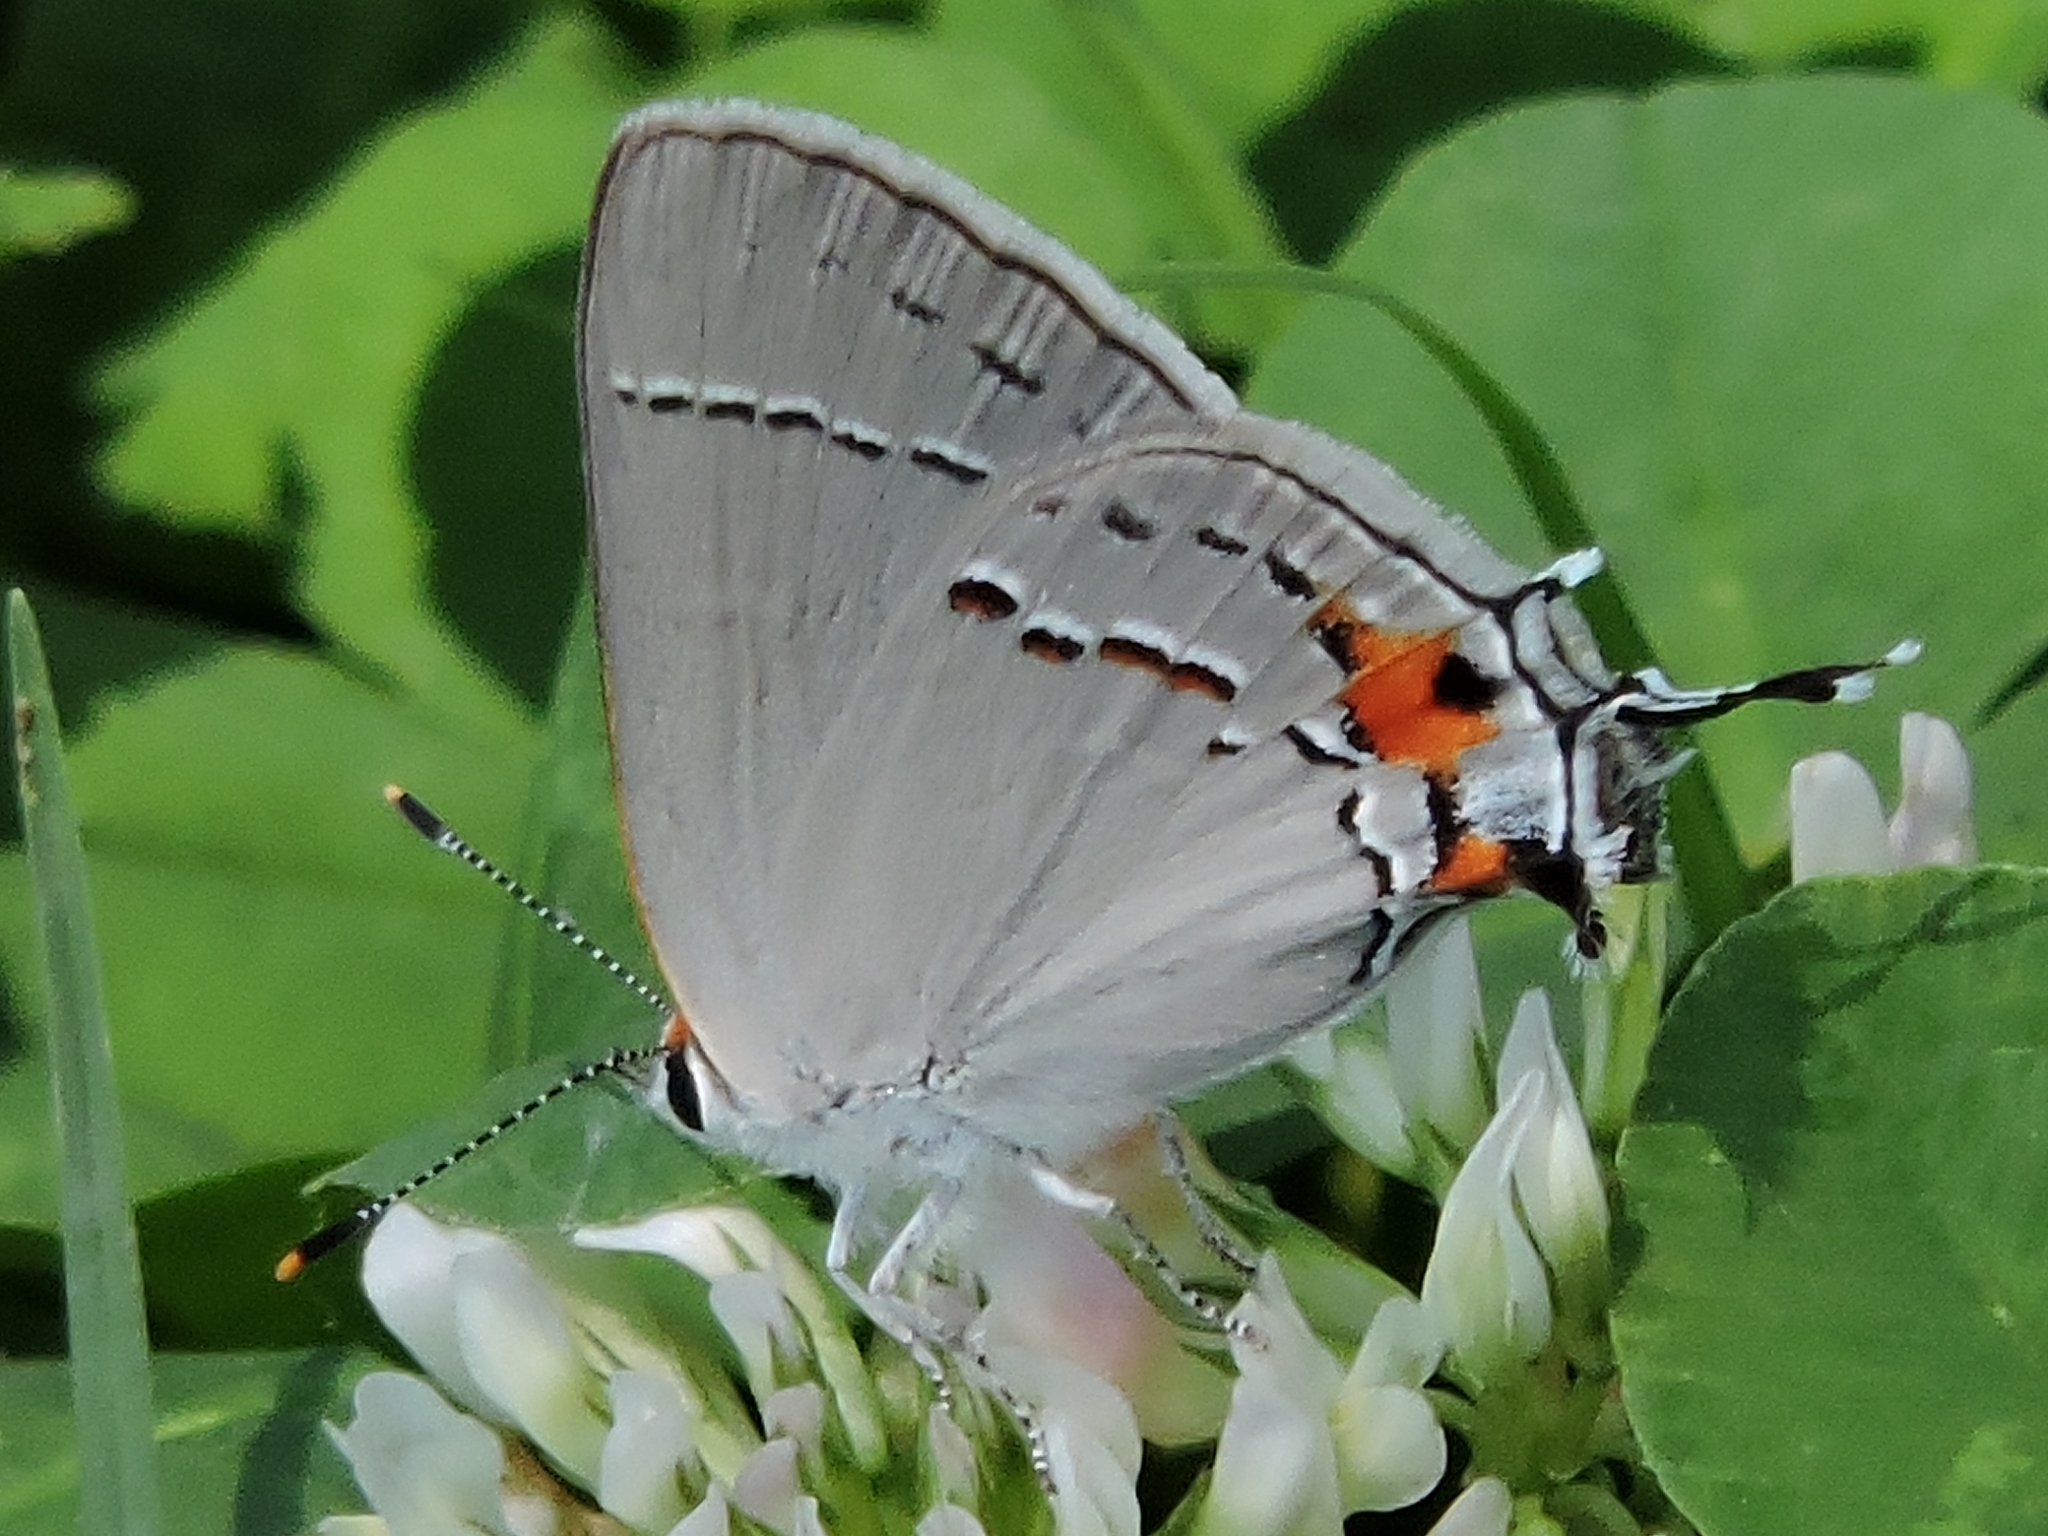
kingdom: Animalia
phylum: Arthropoda
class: Insecta
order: Lepidoptera
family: Lycaenidae
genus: Strymon
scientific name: Strymon melinus
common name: Gray hairstreak
